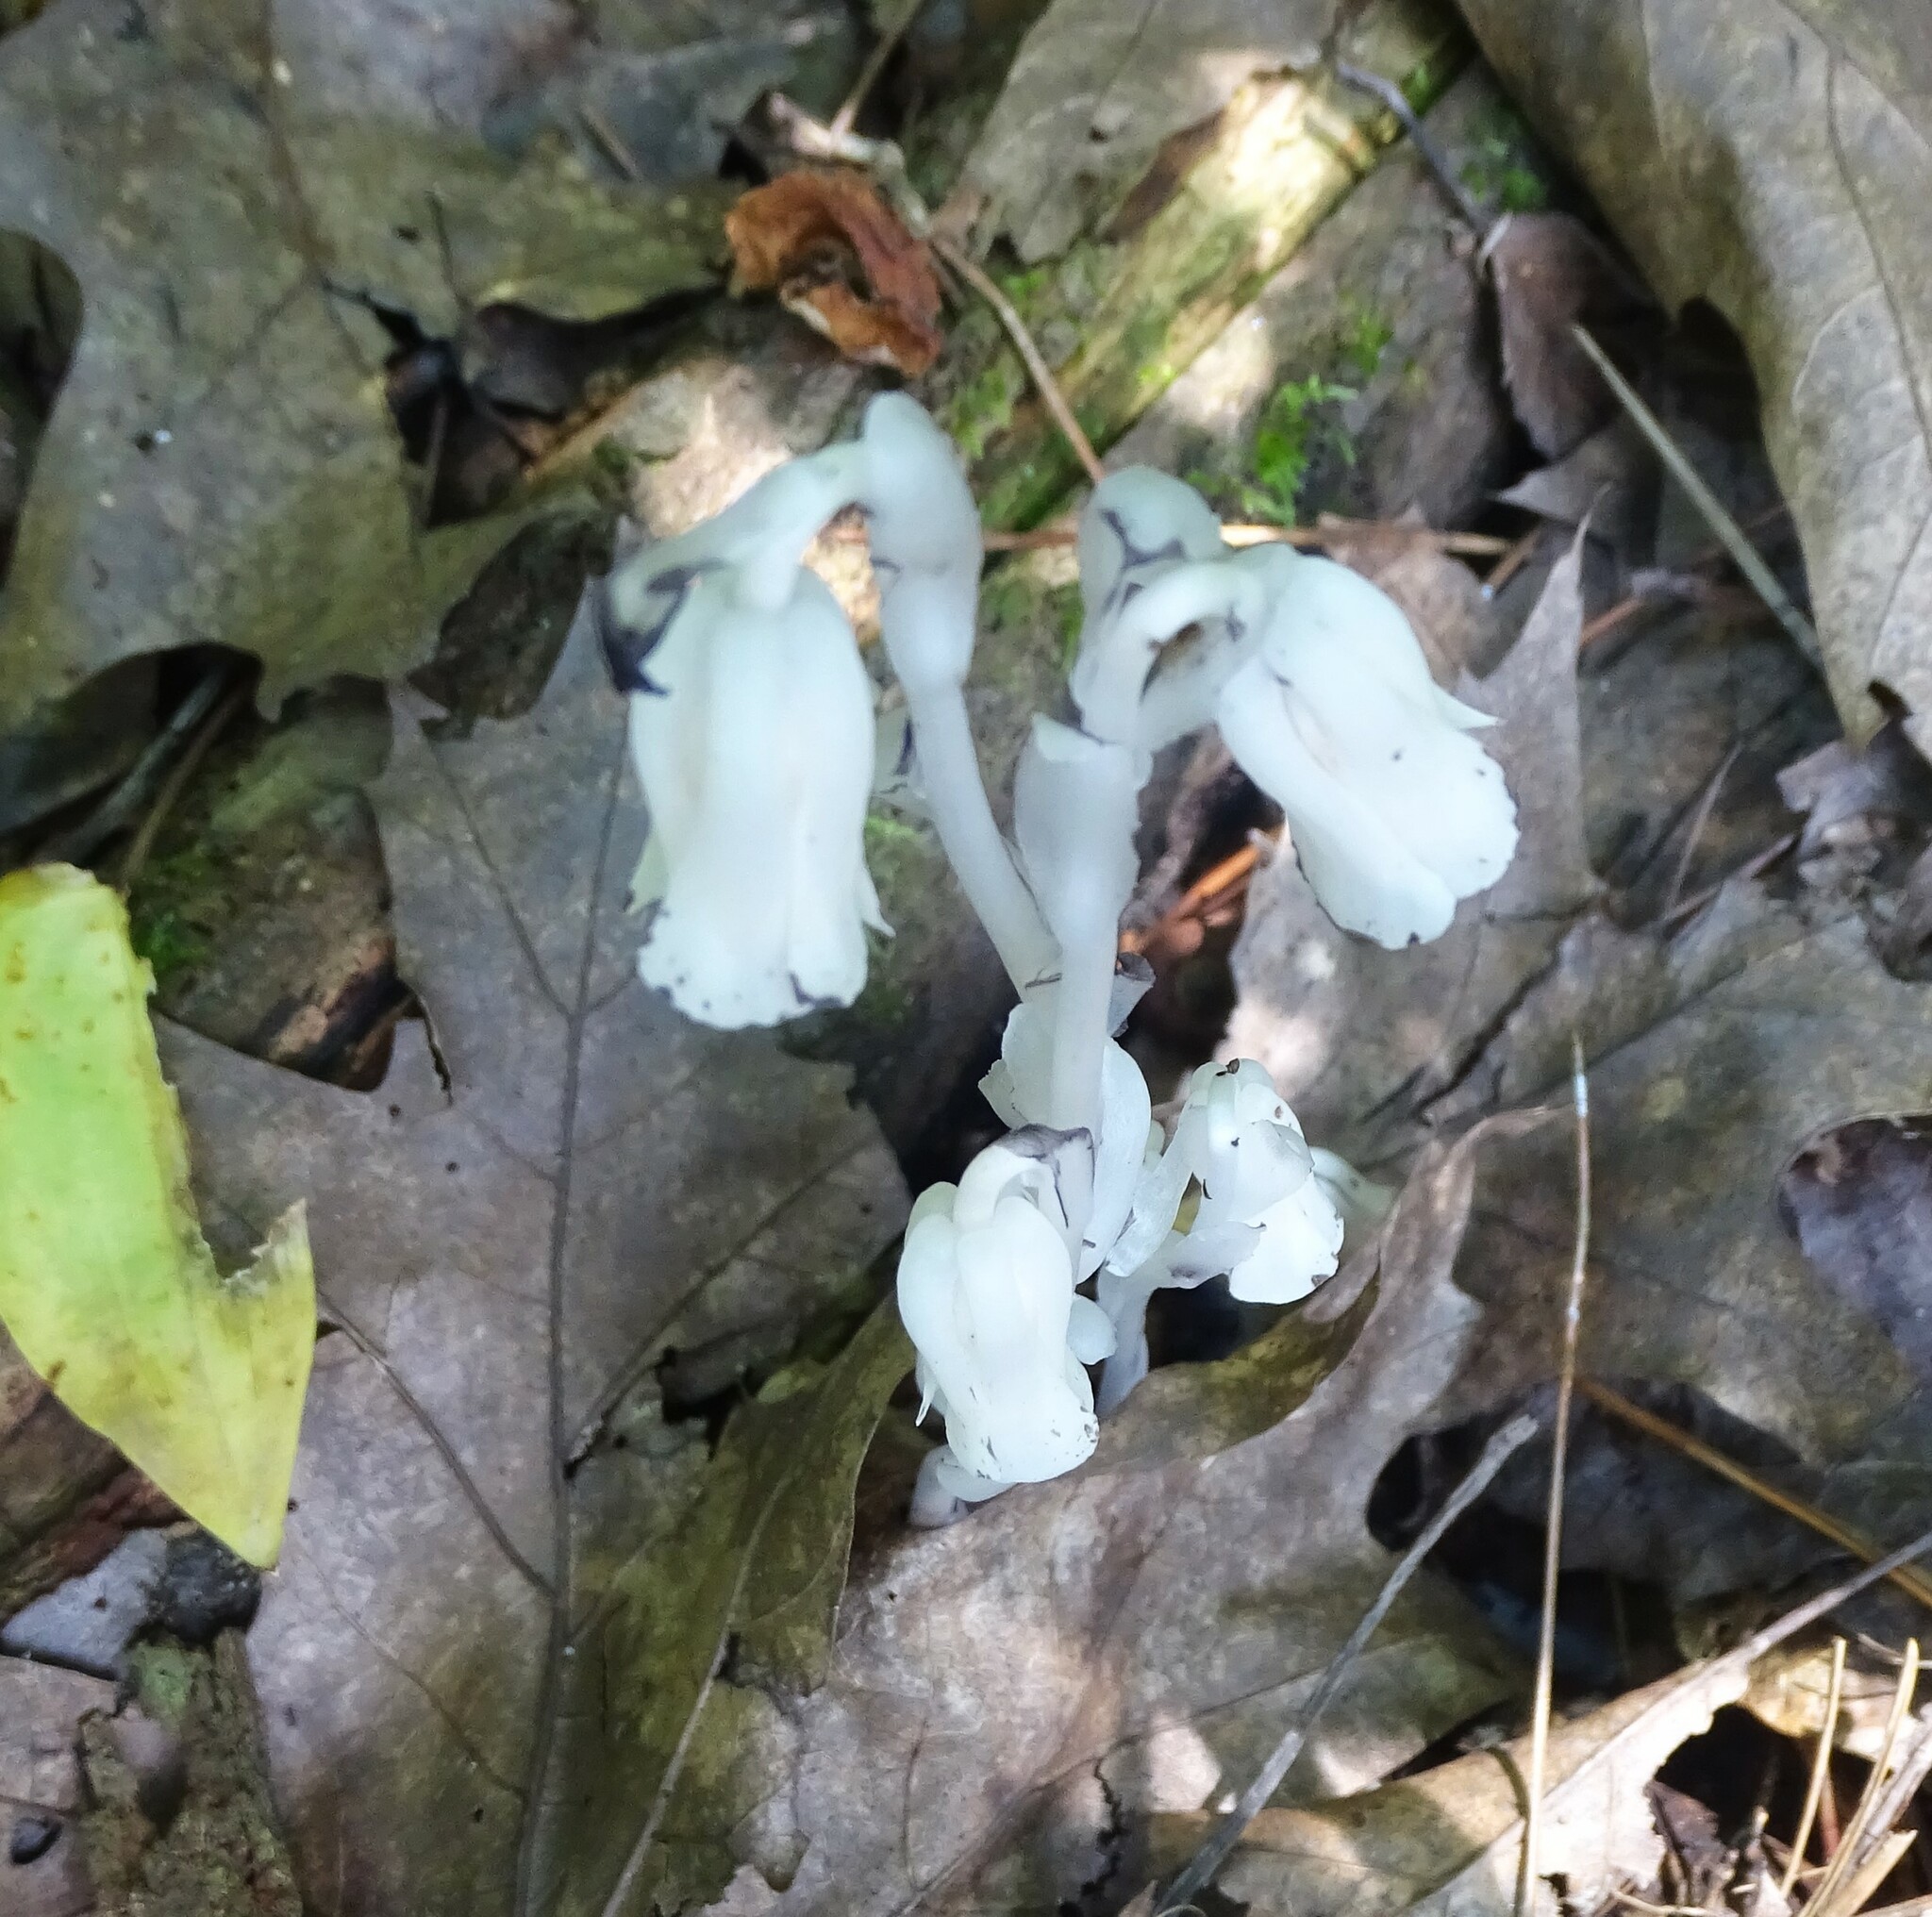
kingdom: Plantae
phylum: Tracheophyta
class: Magnoliopsida
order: Ericales
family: Ericaceae
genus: Monotropa
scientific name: Monotropa uniflora
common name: Convulsion root
